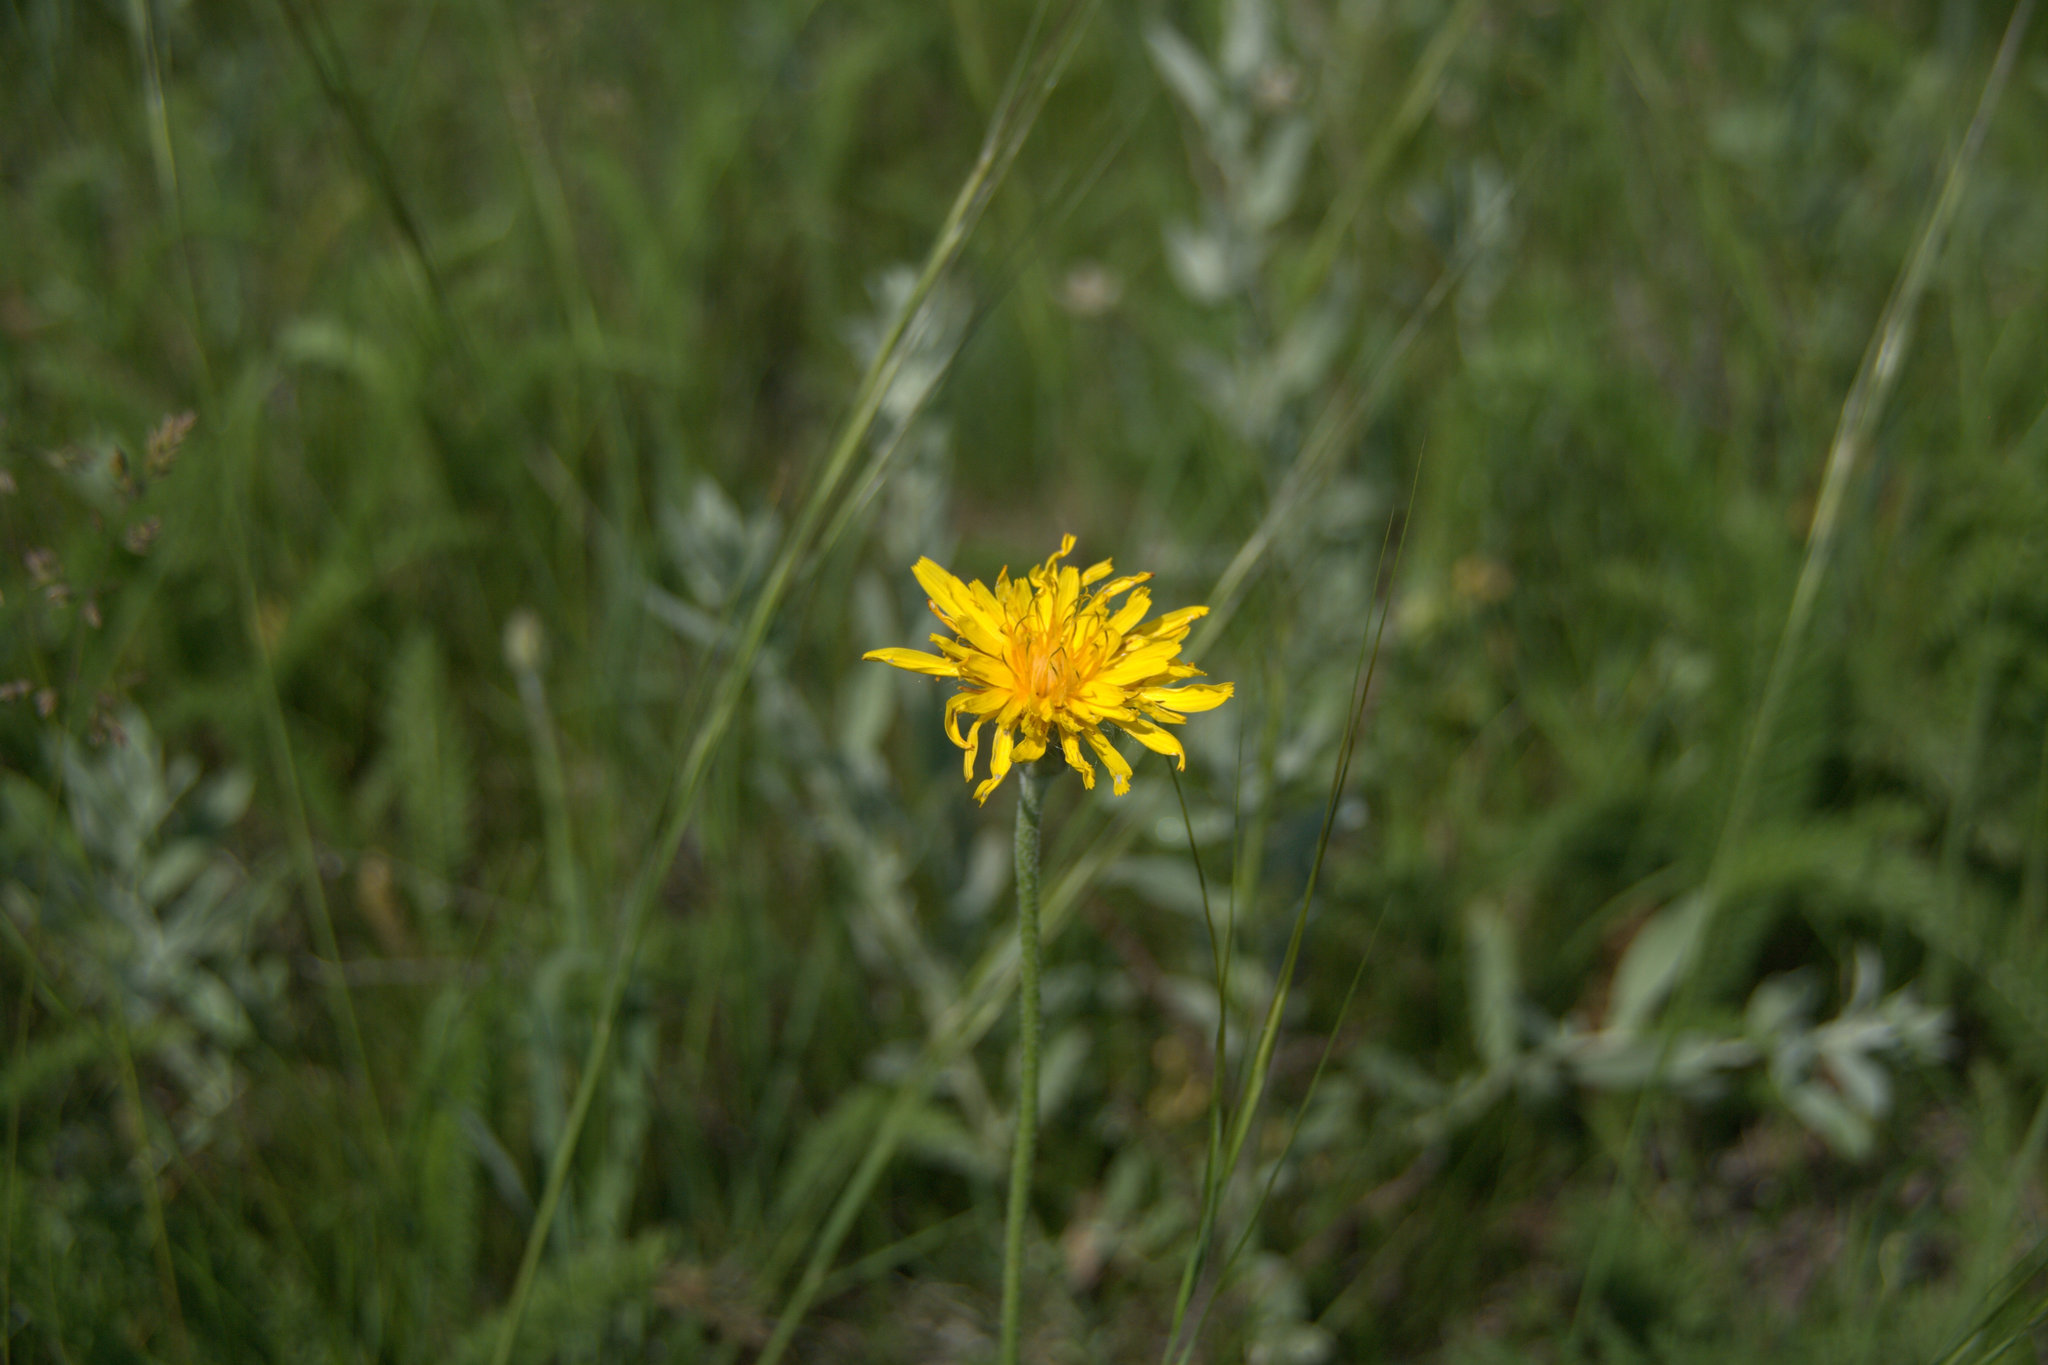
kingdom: Plantae
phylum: Tracheophyta
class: Magnoliopsida
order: Asterales
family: Asteraceae
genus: Agoseris
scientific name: Agoseris glauca
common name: Prairie agoseris
